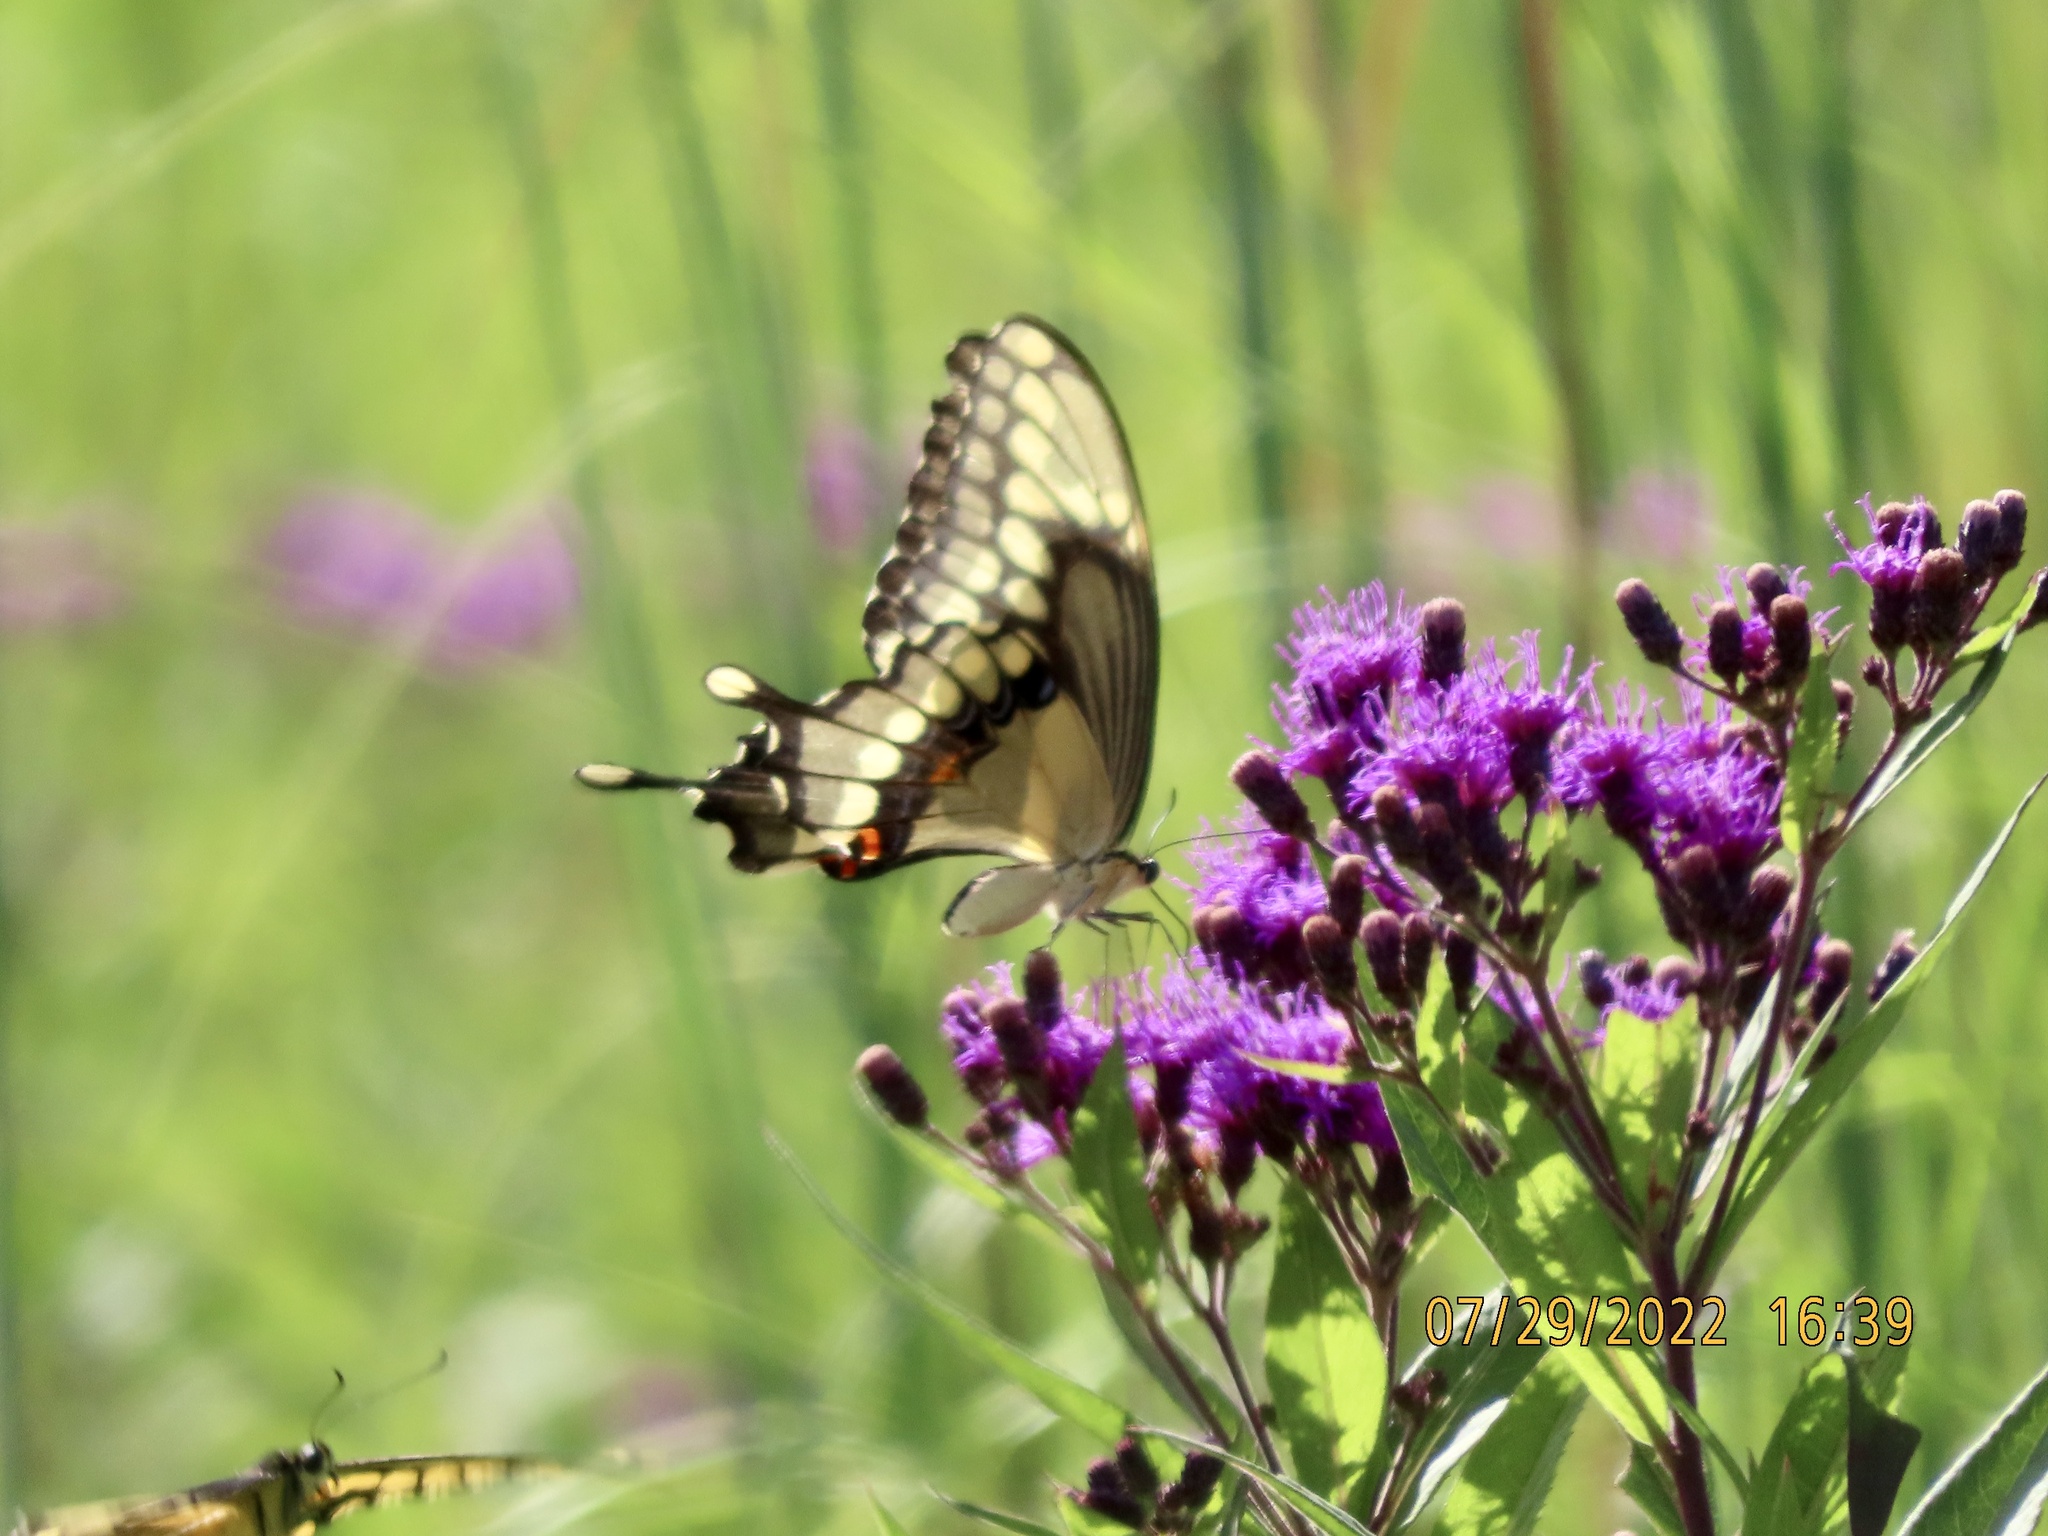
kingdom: Animalia
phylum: Arthropoda
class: Insecta
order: Lepidoptera
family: Papilionidae
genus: Papilio
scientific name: Papilio cresphontes
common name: Giant swallowtail
